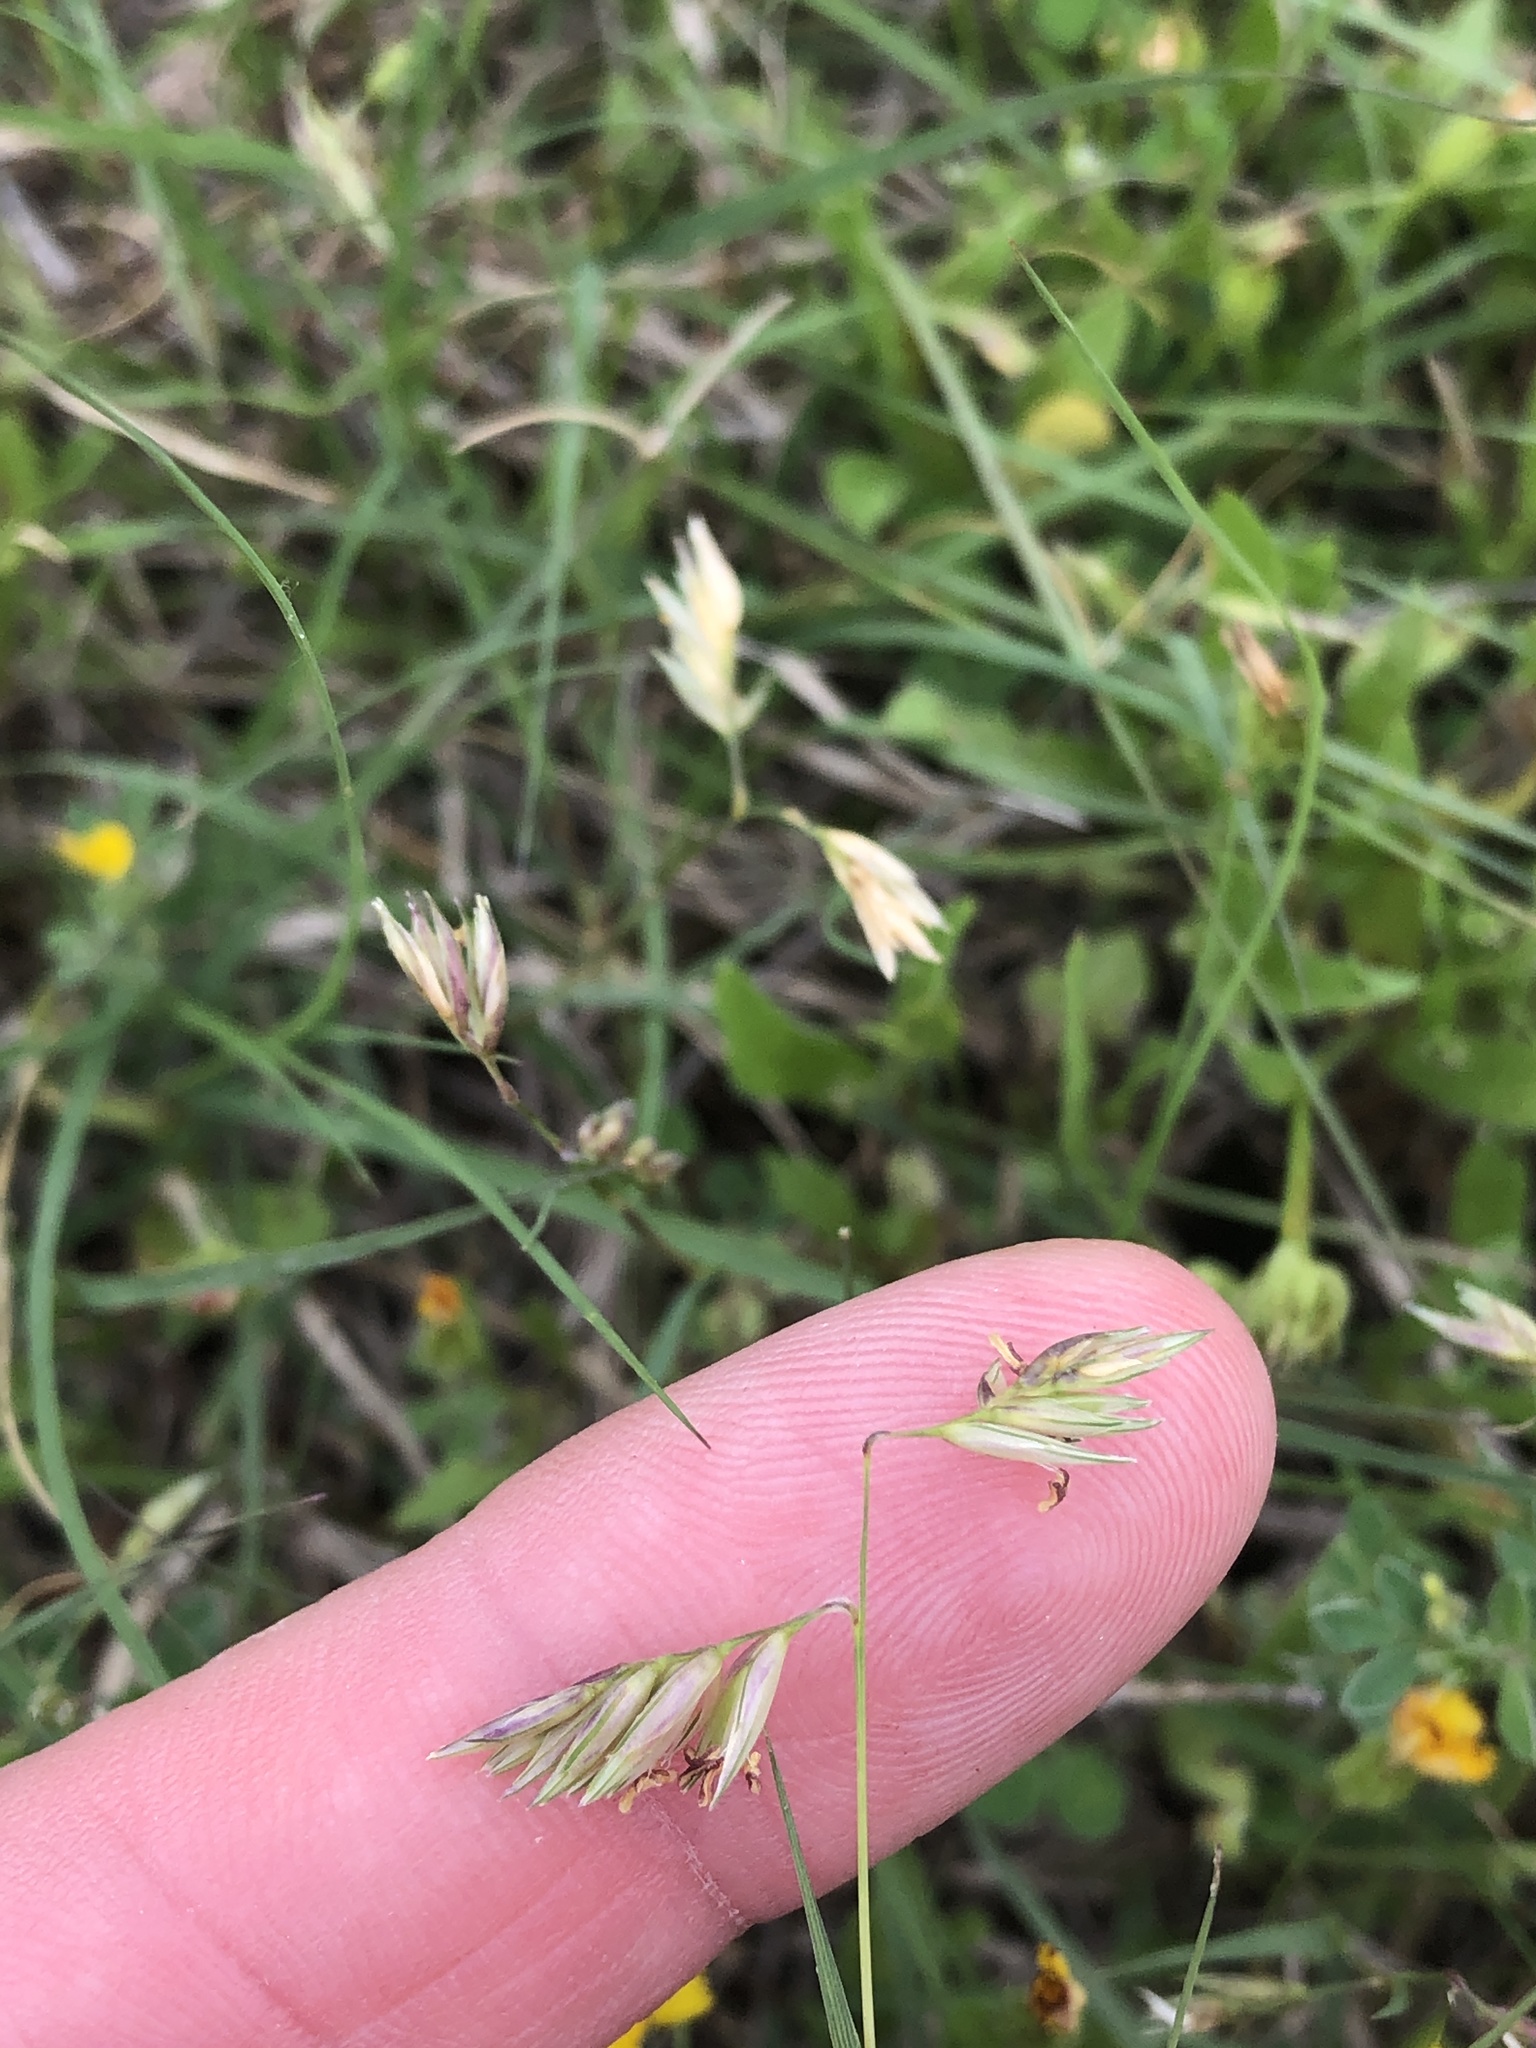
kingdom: Plantae
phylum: Tracheophyta
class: Liliopsida
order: Poales
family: Poaceae
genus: Bouteloua
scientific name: Bouteloua dactyloides
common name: Buffalo grass
